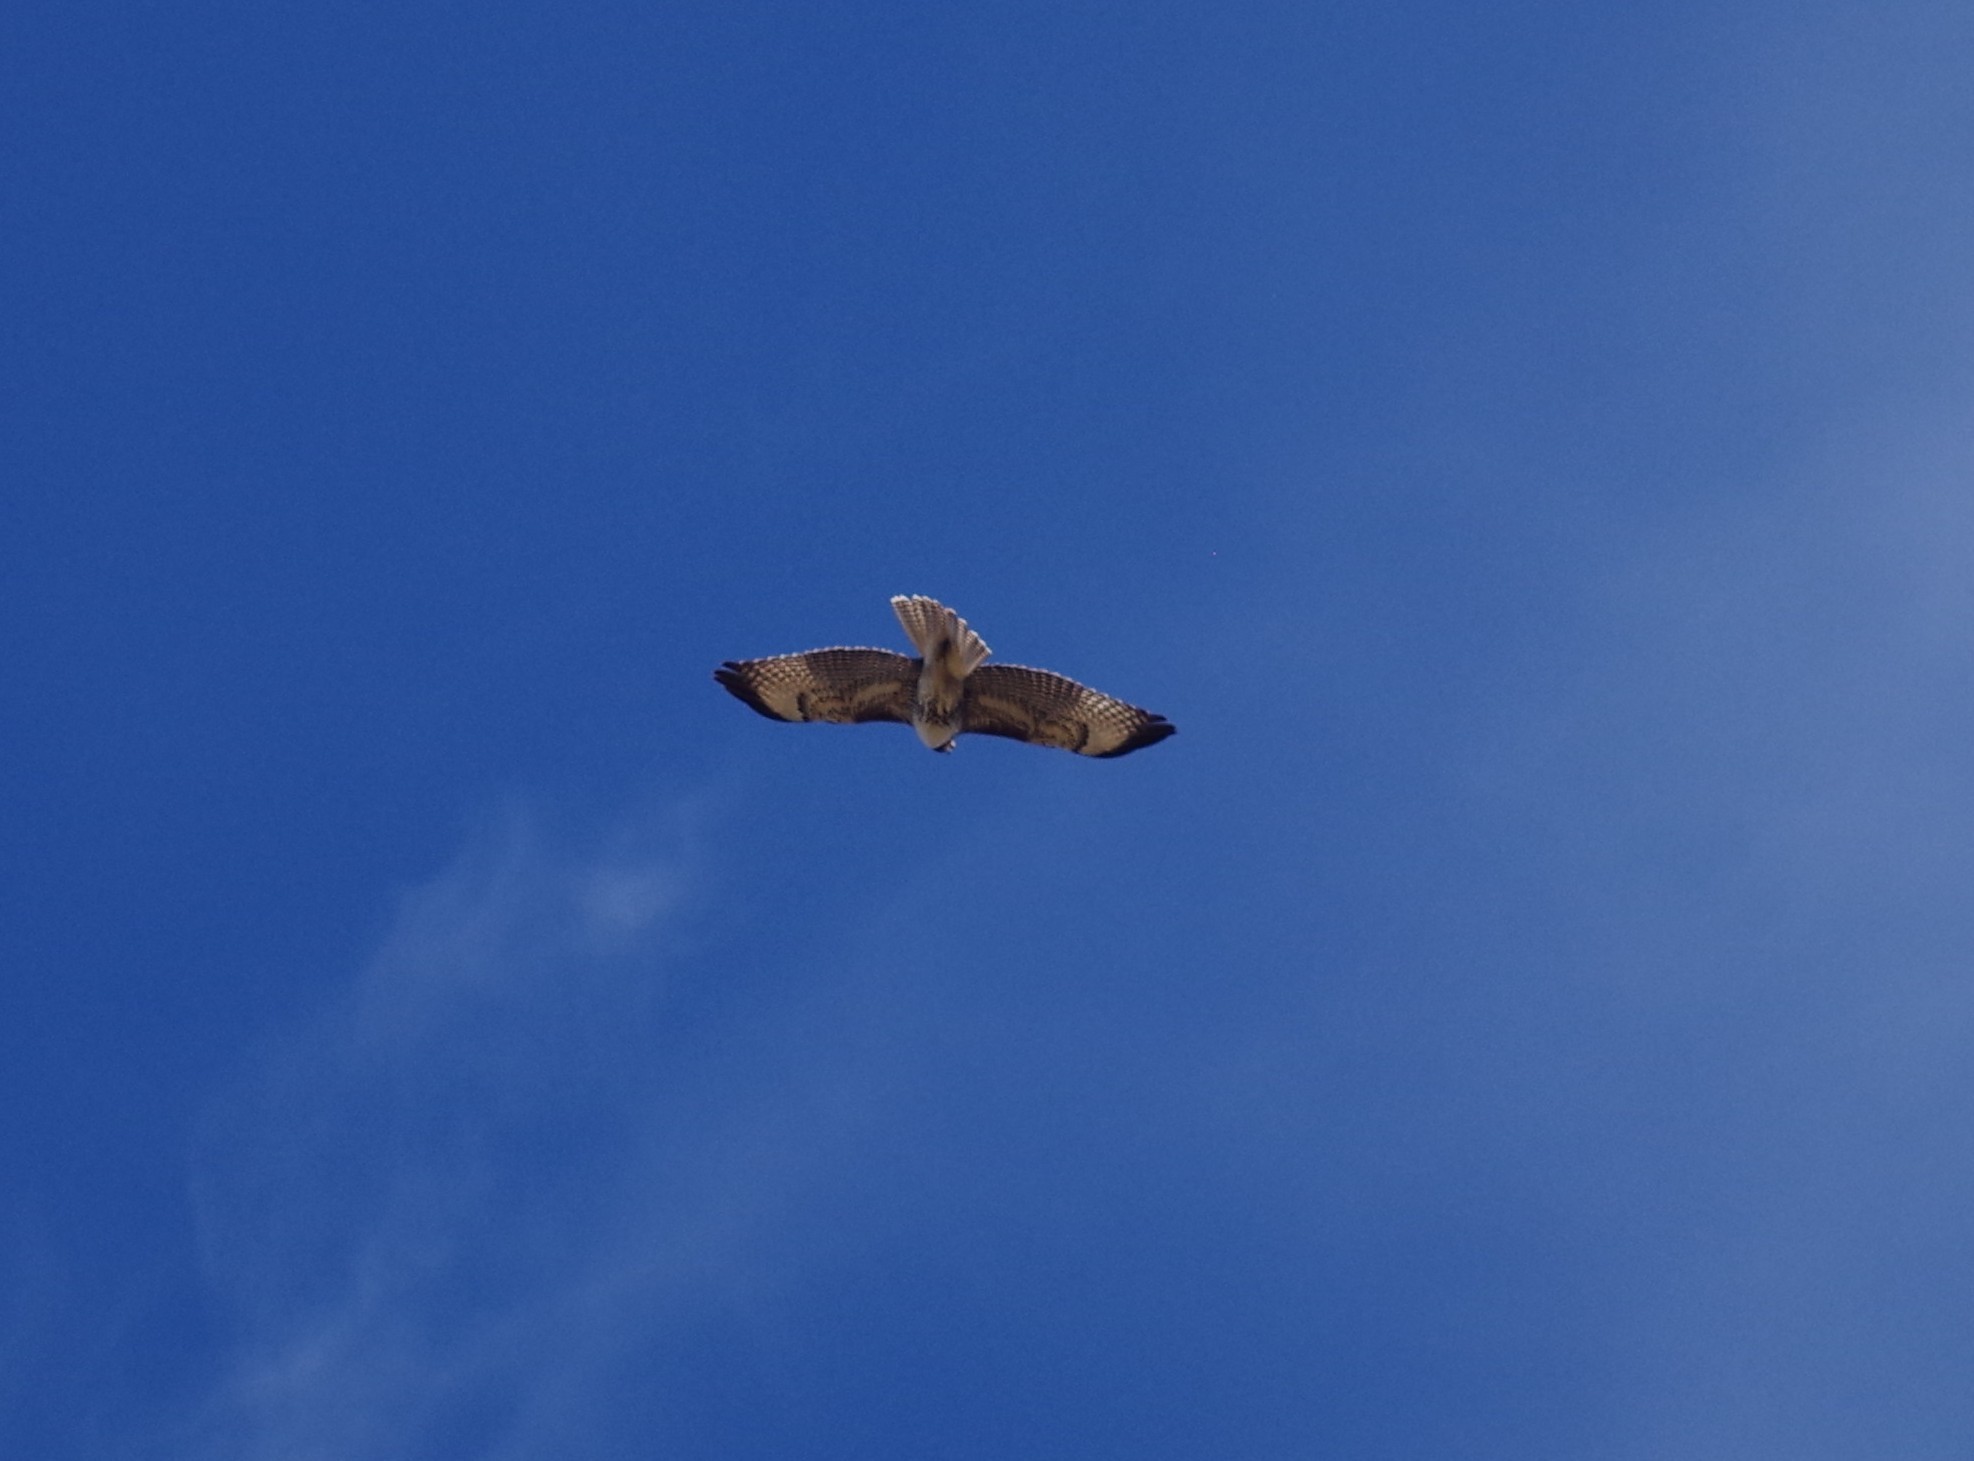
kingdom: Animalia
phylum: Chordata
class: Aves
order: Accipitriformes
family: Accipitridae
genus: Buteo
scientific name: Buteo jamaicensis
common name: Red-tailed hawk
